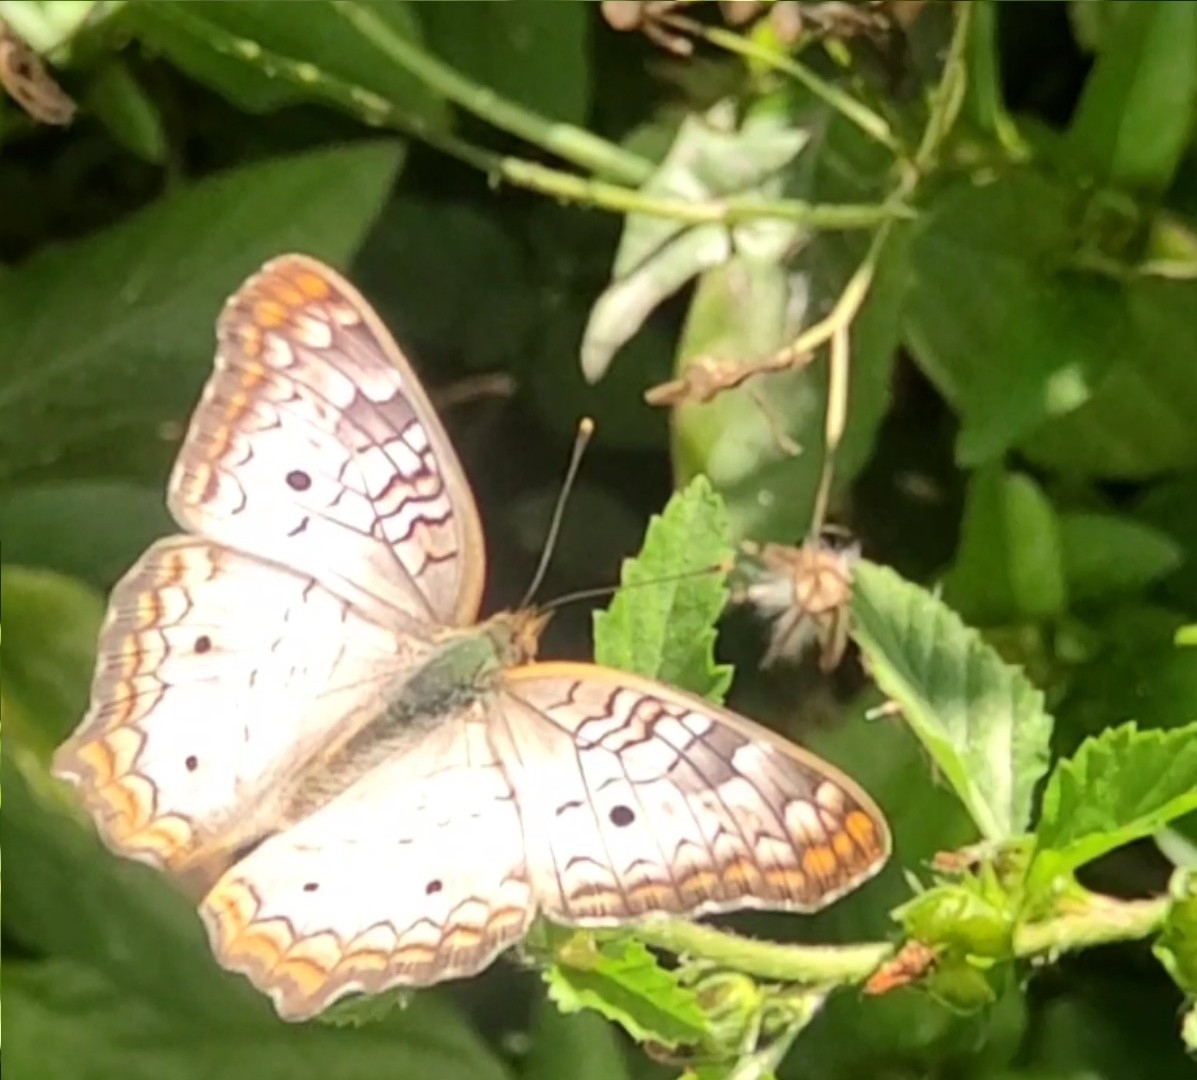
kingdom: Animalia
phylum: Arthropoda
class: Insecta
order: Lepidoptera
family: Nymphalidae
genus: Anartia
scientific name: Anartia jatrophae
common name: White peacock
